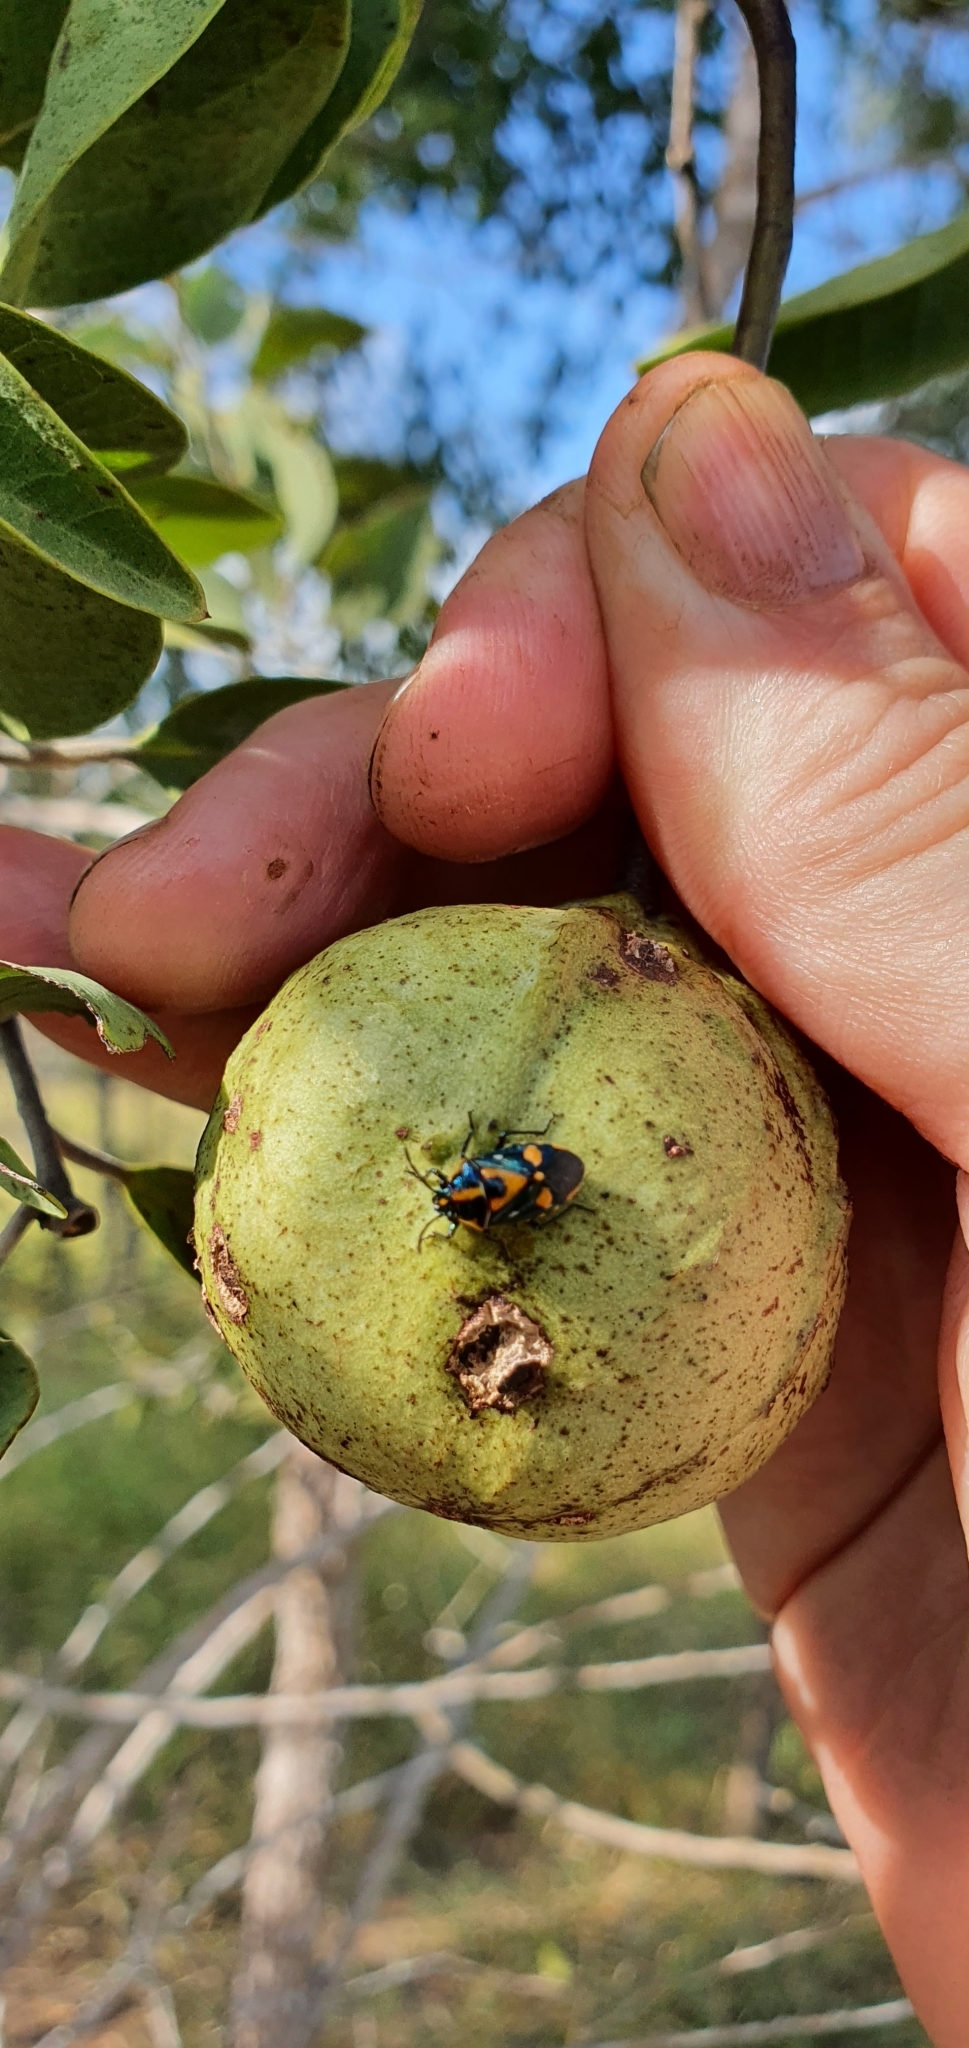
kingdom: Animalia
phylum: Arthropoda
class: Insecta
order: Hemiptera
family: Pentatomidae
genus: Stenozygum
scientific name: Stenozygum
